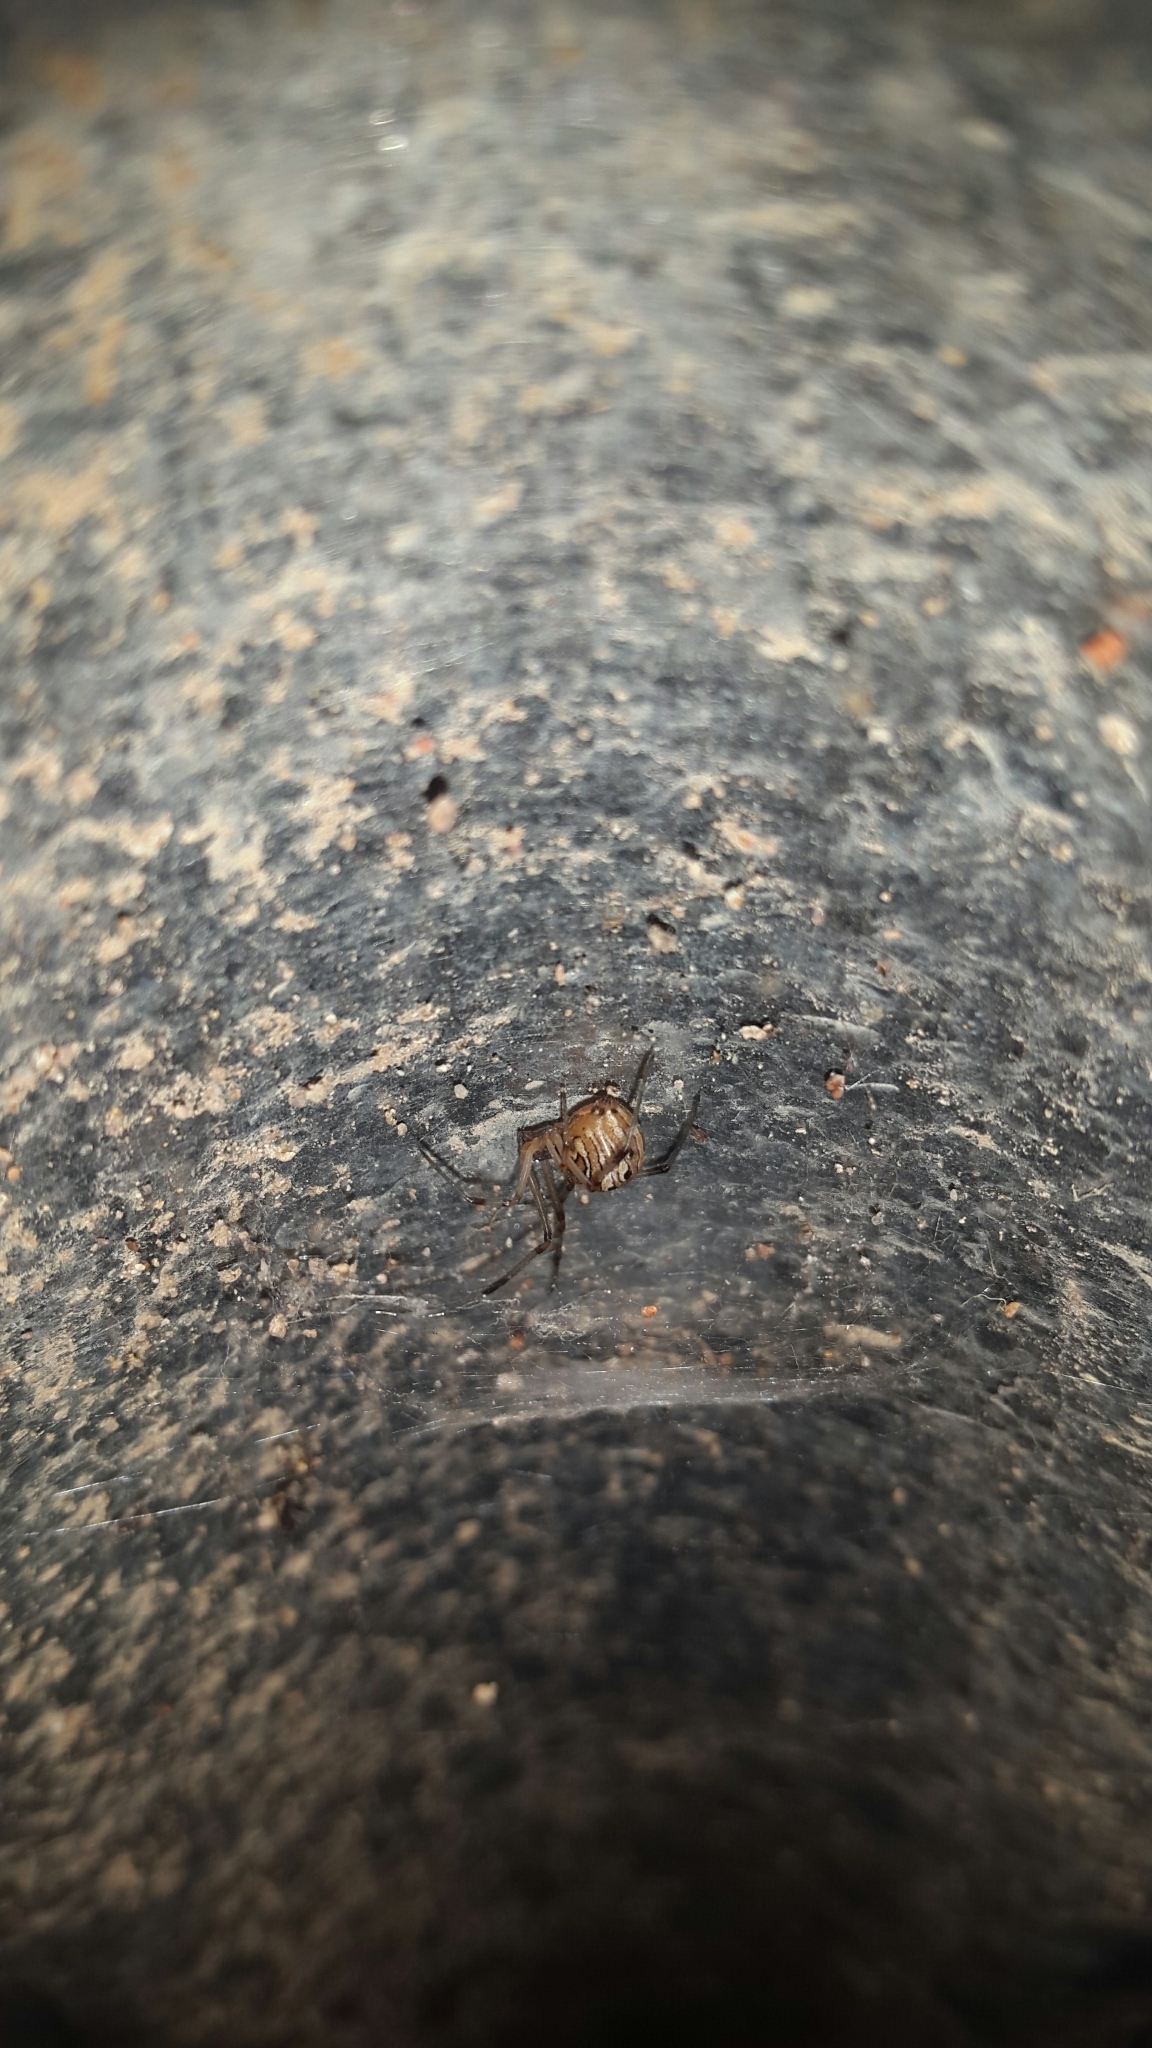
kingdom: Animalia
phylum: Arthropoda
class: Arachnida
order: Araneae
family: Theridiidae
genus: Latrodectus
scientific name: Latrodectus geometricus
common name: Brown widow spider
